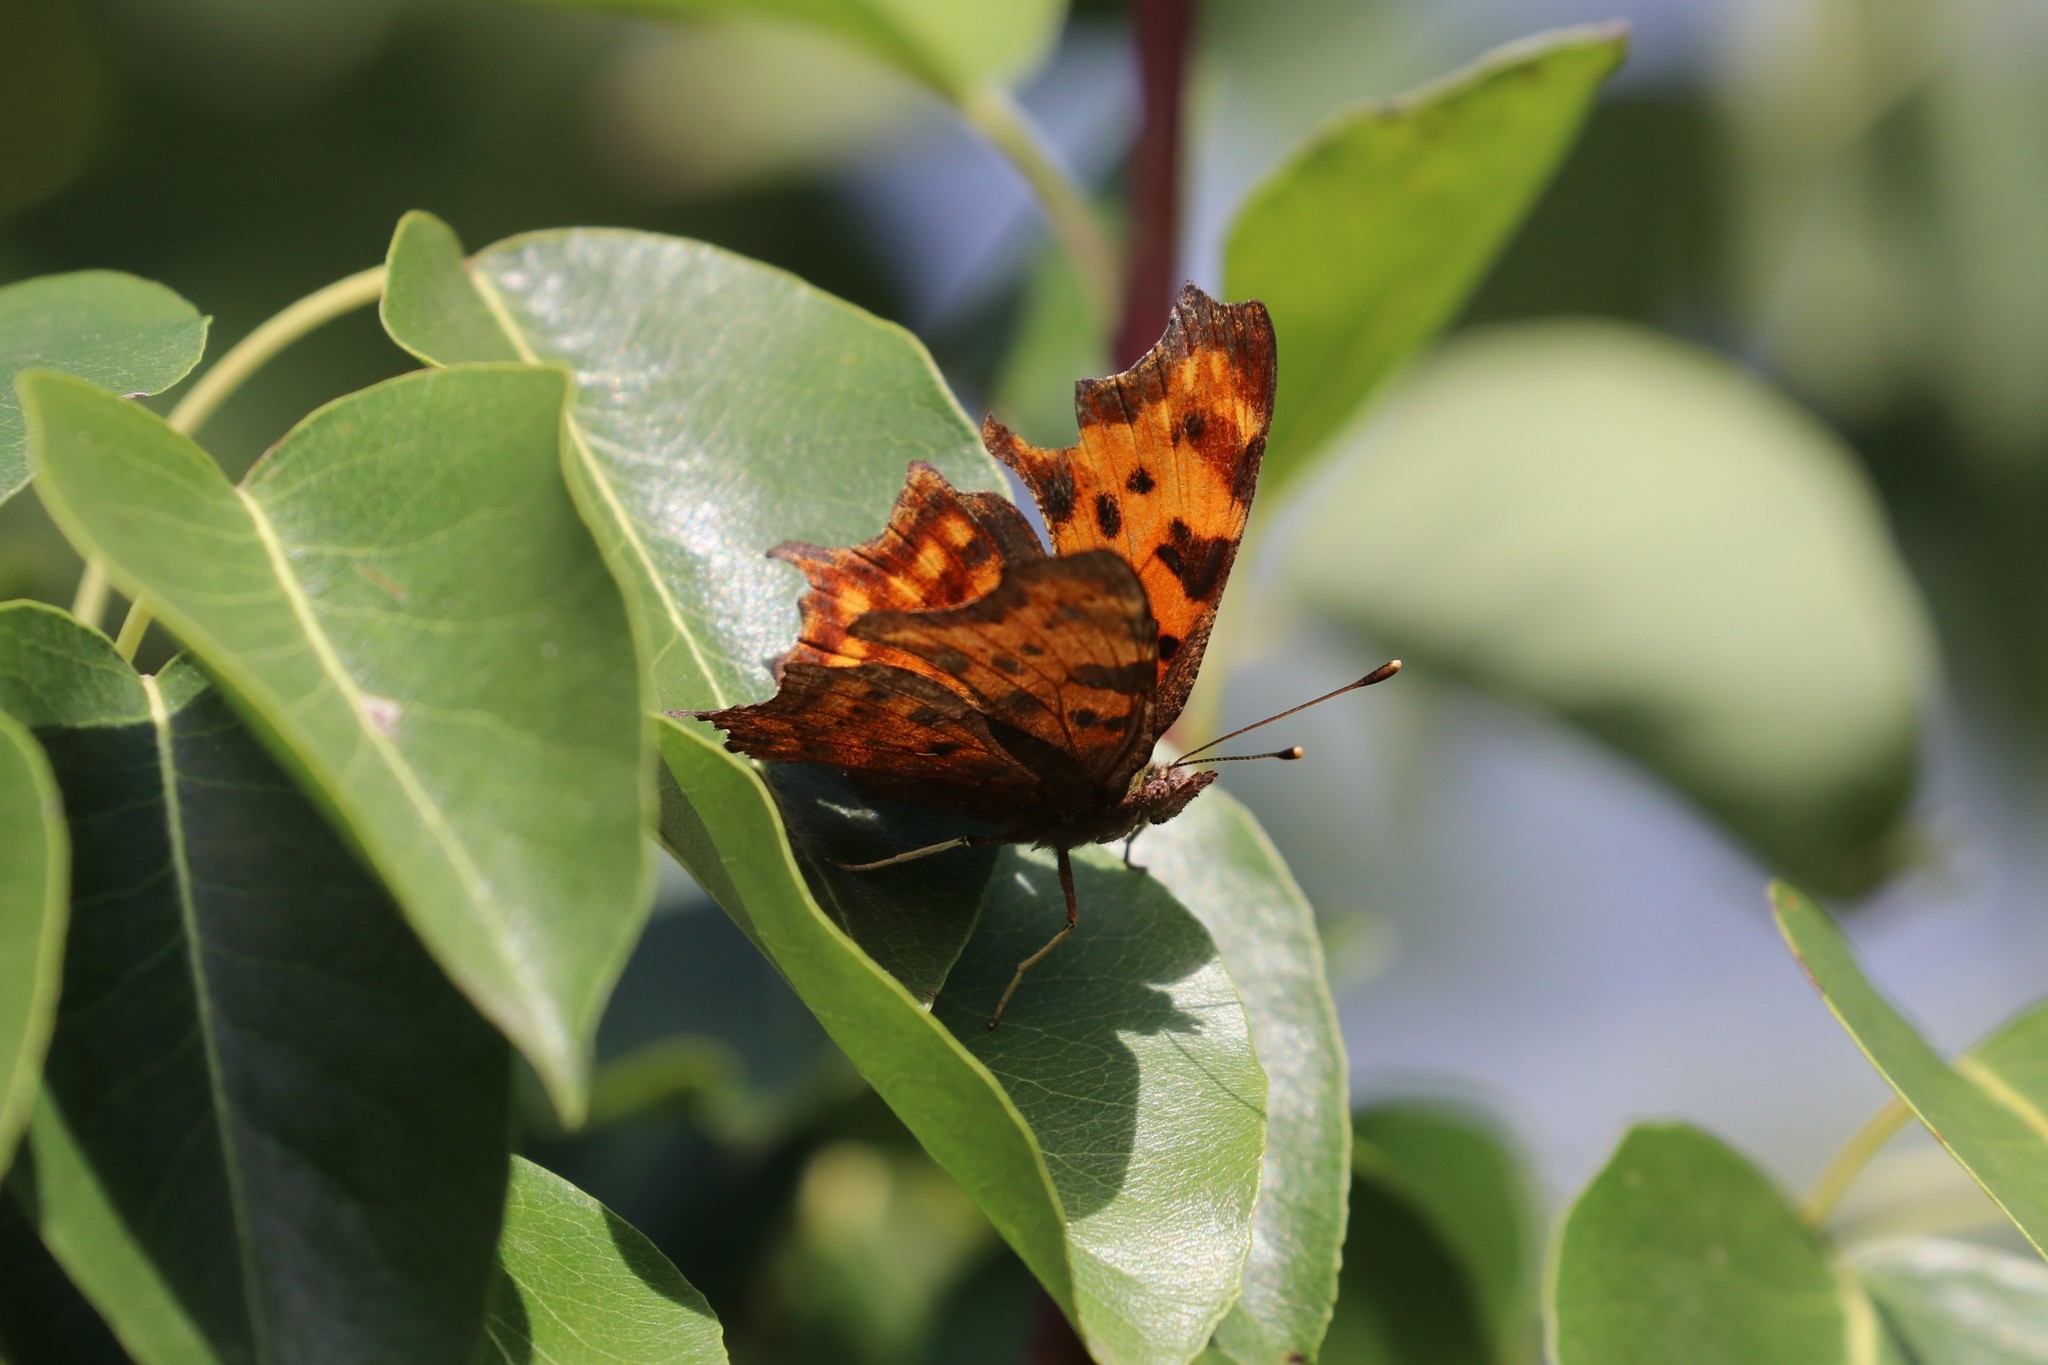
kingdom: Animalia
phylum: Arthropoda
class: Insecta
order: Lepidoptera
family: Nymphalidae
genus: Polygonia
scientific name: Polygonia c-album
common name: Comma
